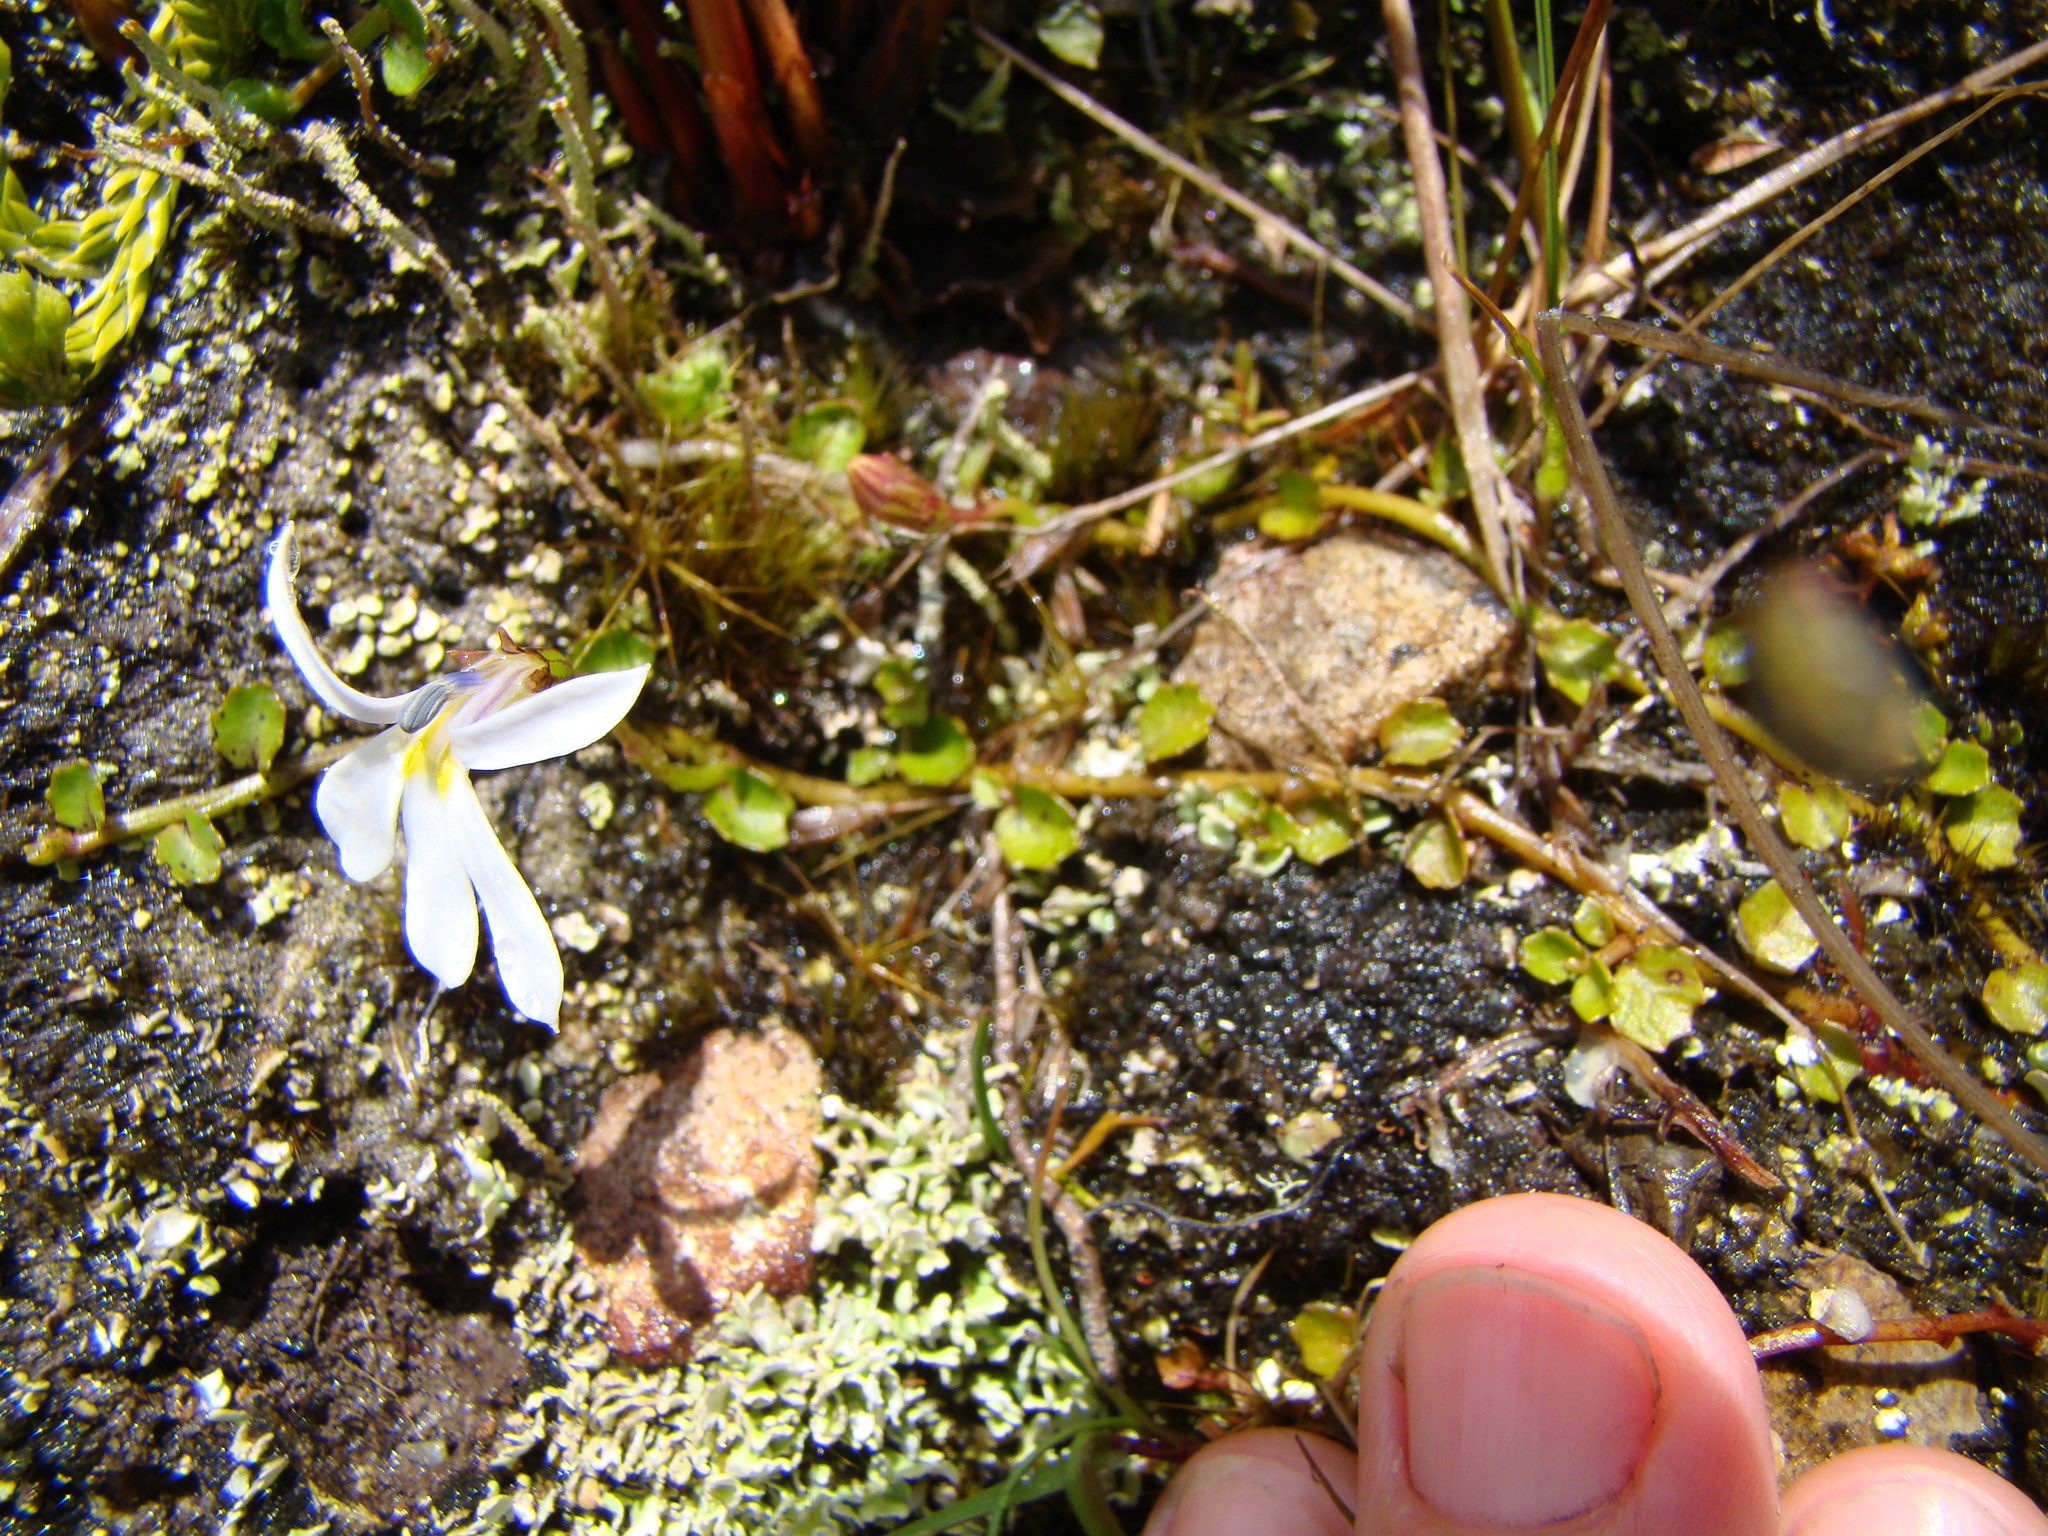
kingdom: Plantae
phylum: Tracheophyta
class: Magnoliopsida
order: Asterales
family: Campanulaceae
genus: Lobelia
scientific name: Lobelia angulata
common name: Lawn lobelia
